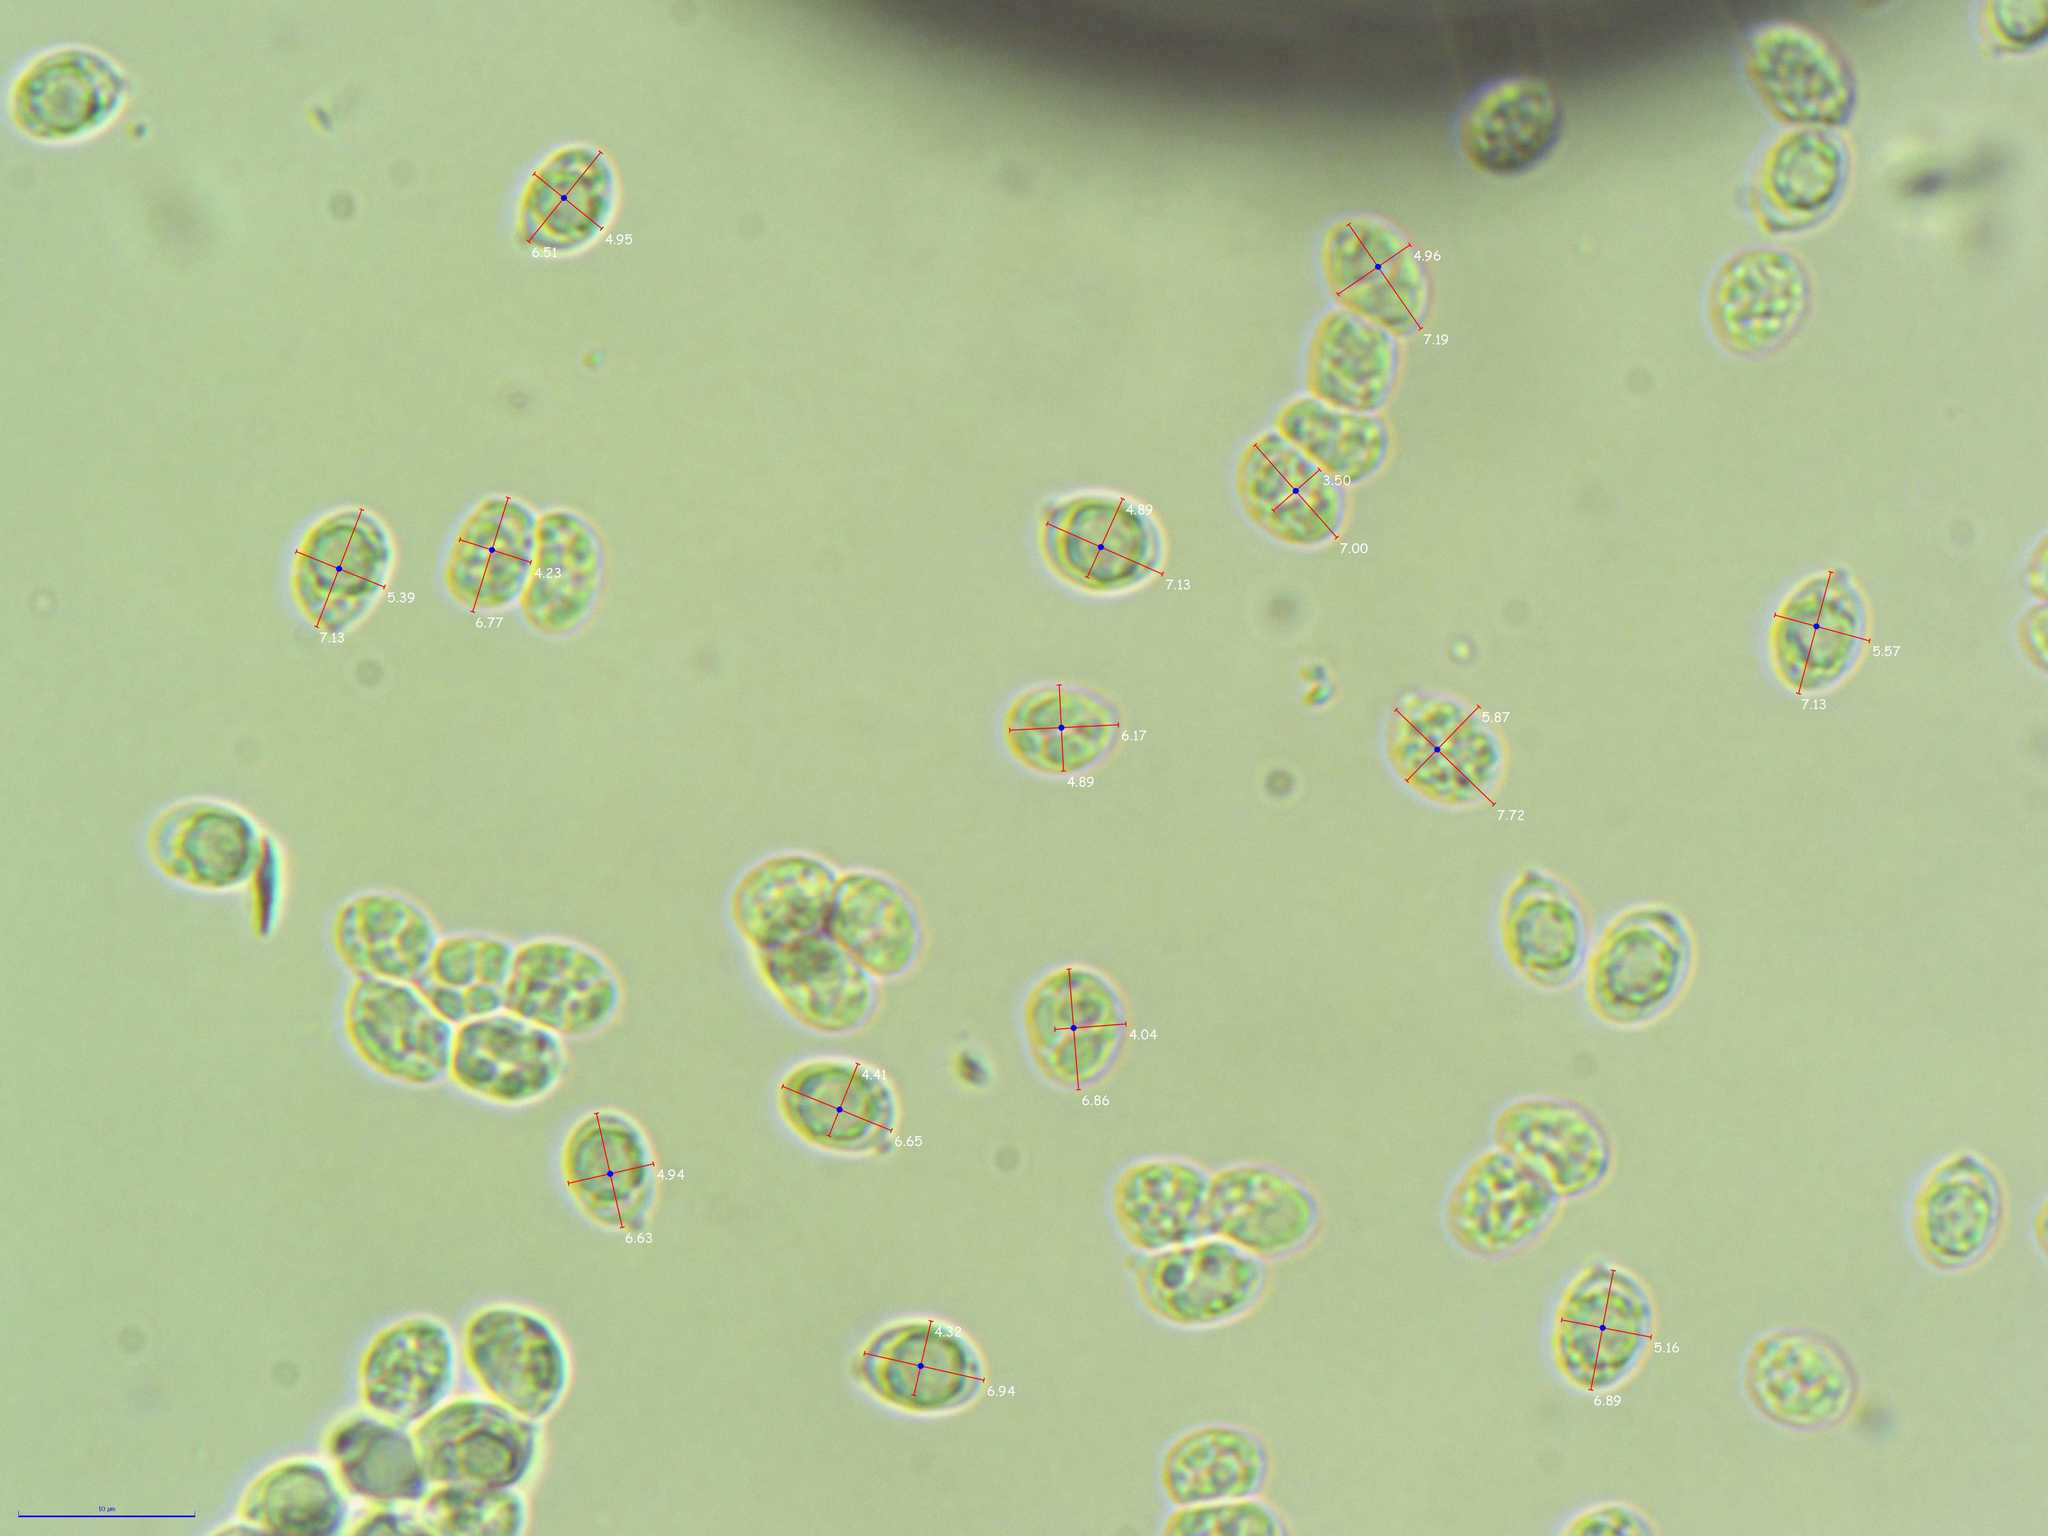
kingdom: Fungi
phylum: Basidiomycota
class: Agaricomycetes
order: Cantharellales
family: Hydnaceae
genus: Cantharellus
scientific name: Cantharellus appalachiensis
